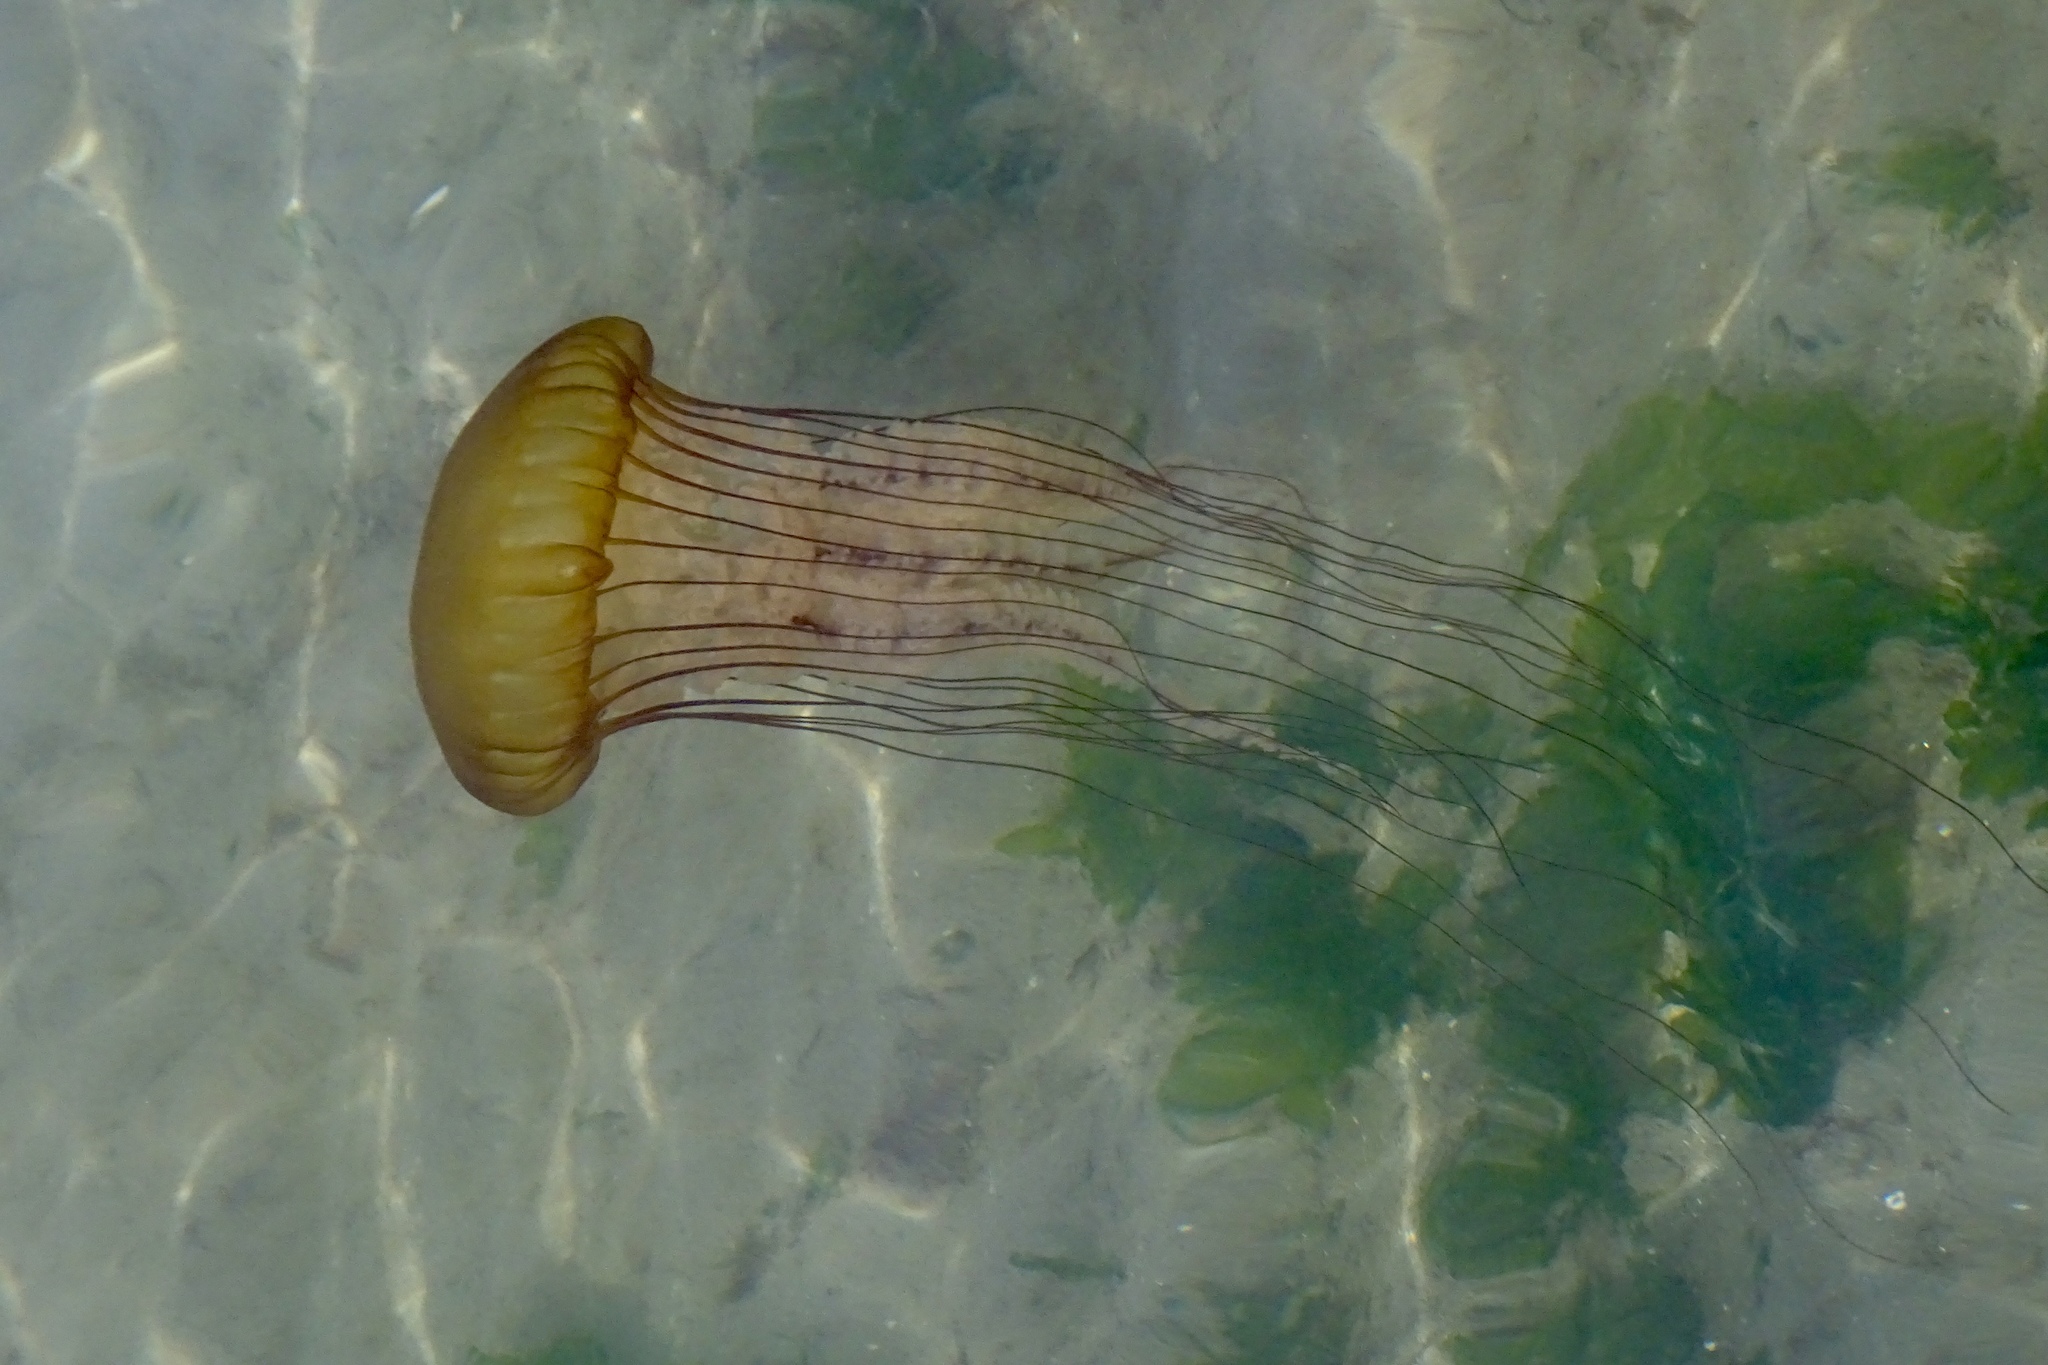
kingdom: Animalia
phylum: Cnidaria
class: Scyphozoa
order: Semaeostomeae
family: Pelagiidae
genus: Chrysaora
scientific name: Chrysaora fuscescens
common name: Sea nettle
